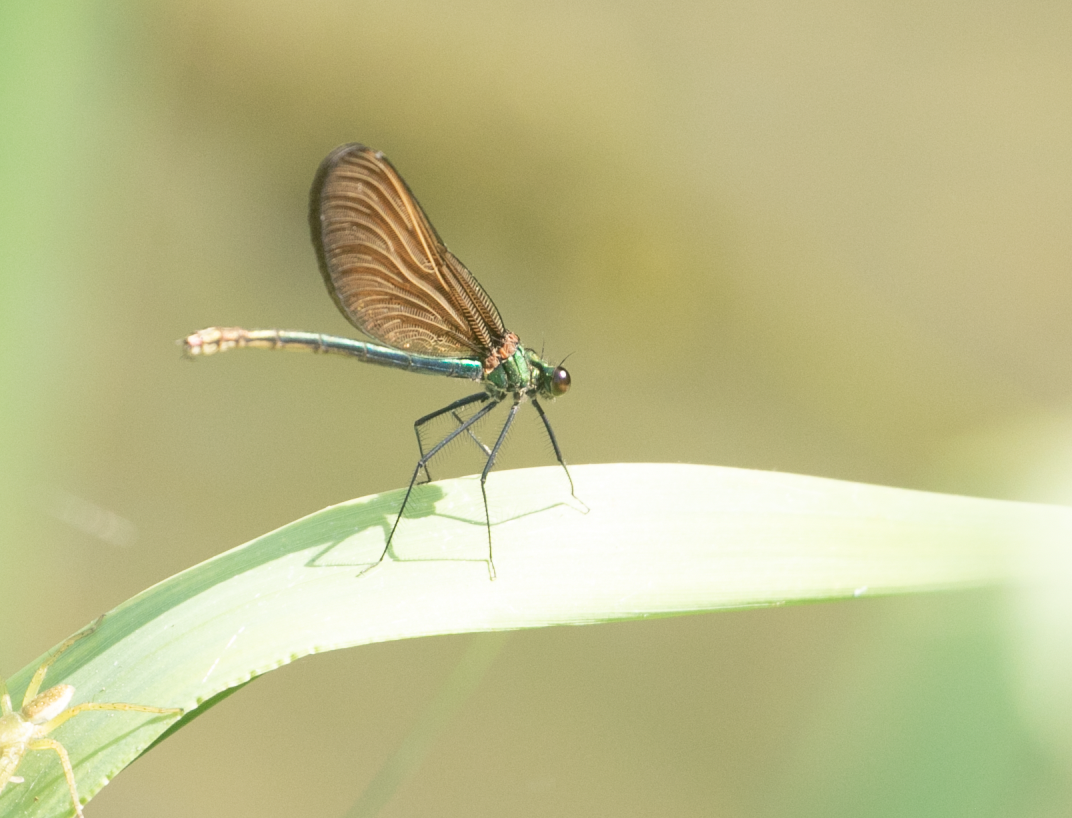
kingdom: Animalia
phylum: Arthropoda
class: Insecta
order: Odonata
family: Calopterygidae
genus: Calopteryx
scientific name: Calopteryx virgo
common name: Beautiful demoiselle
